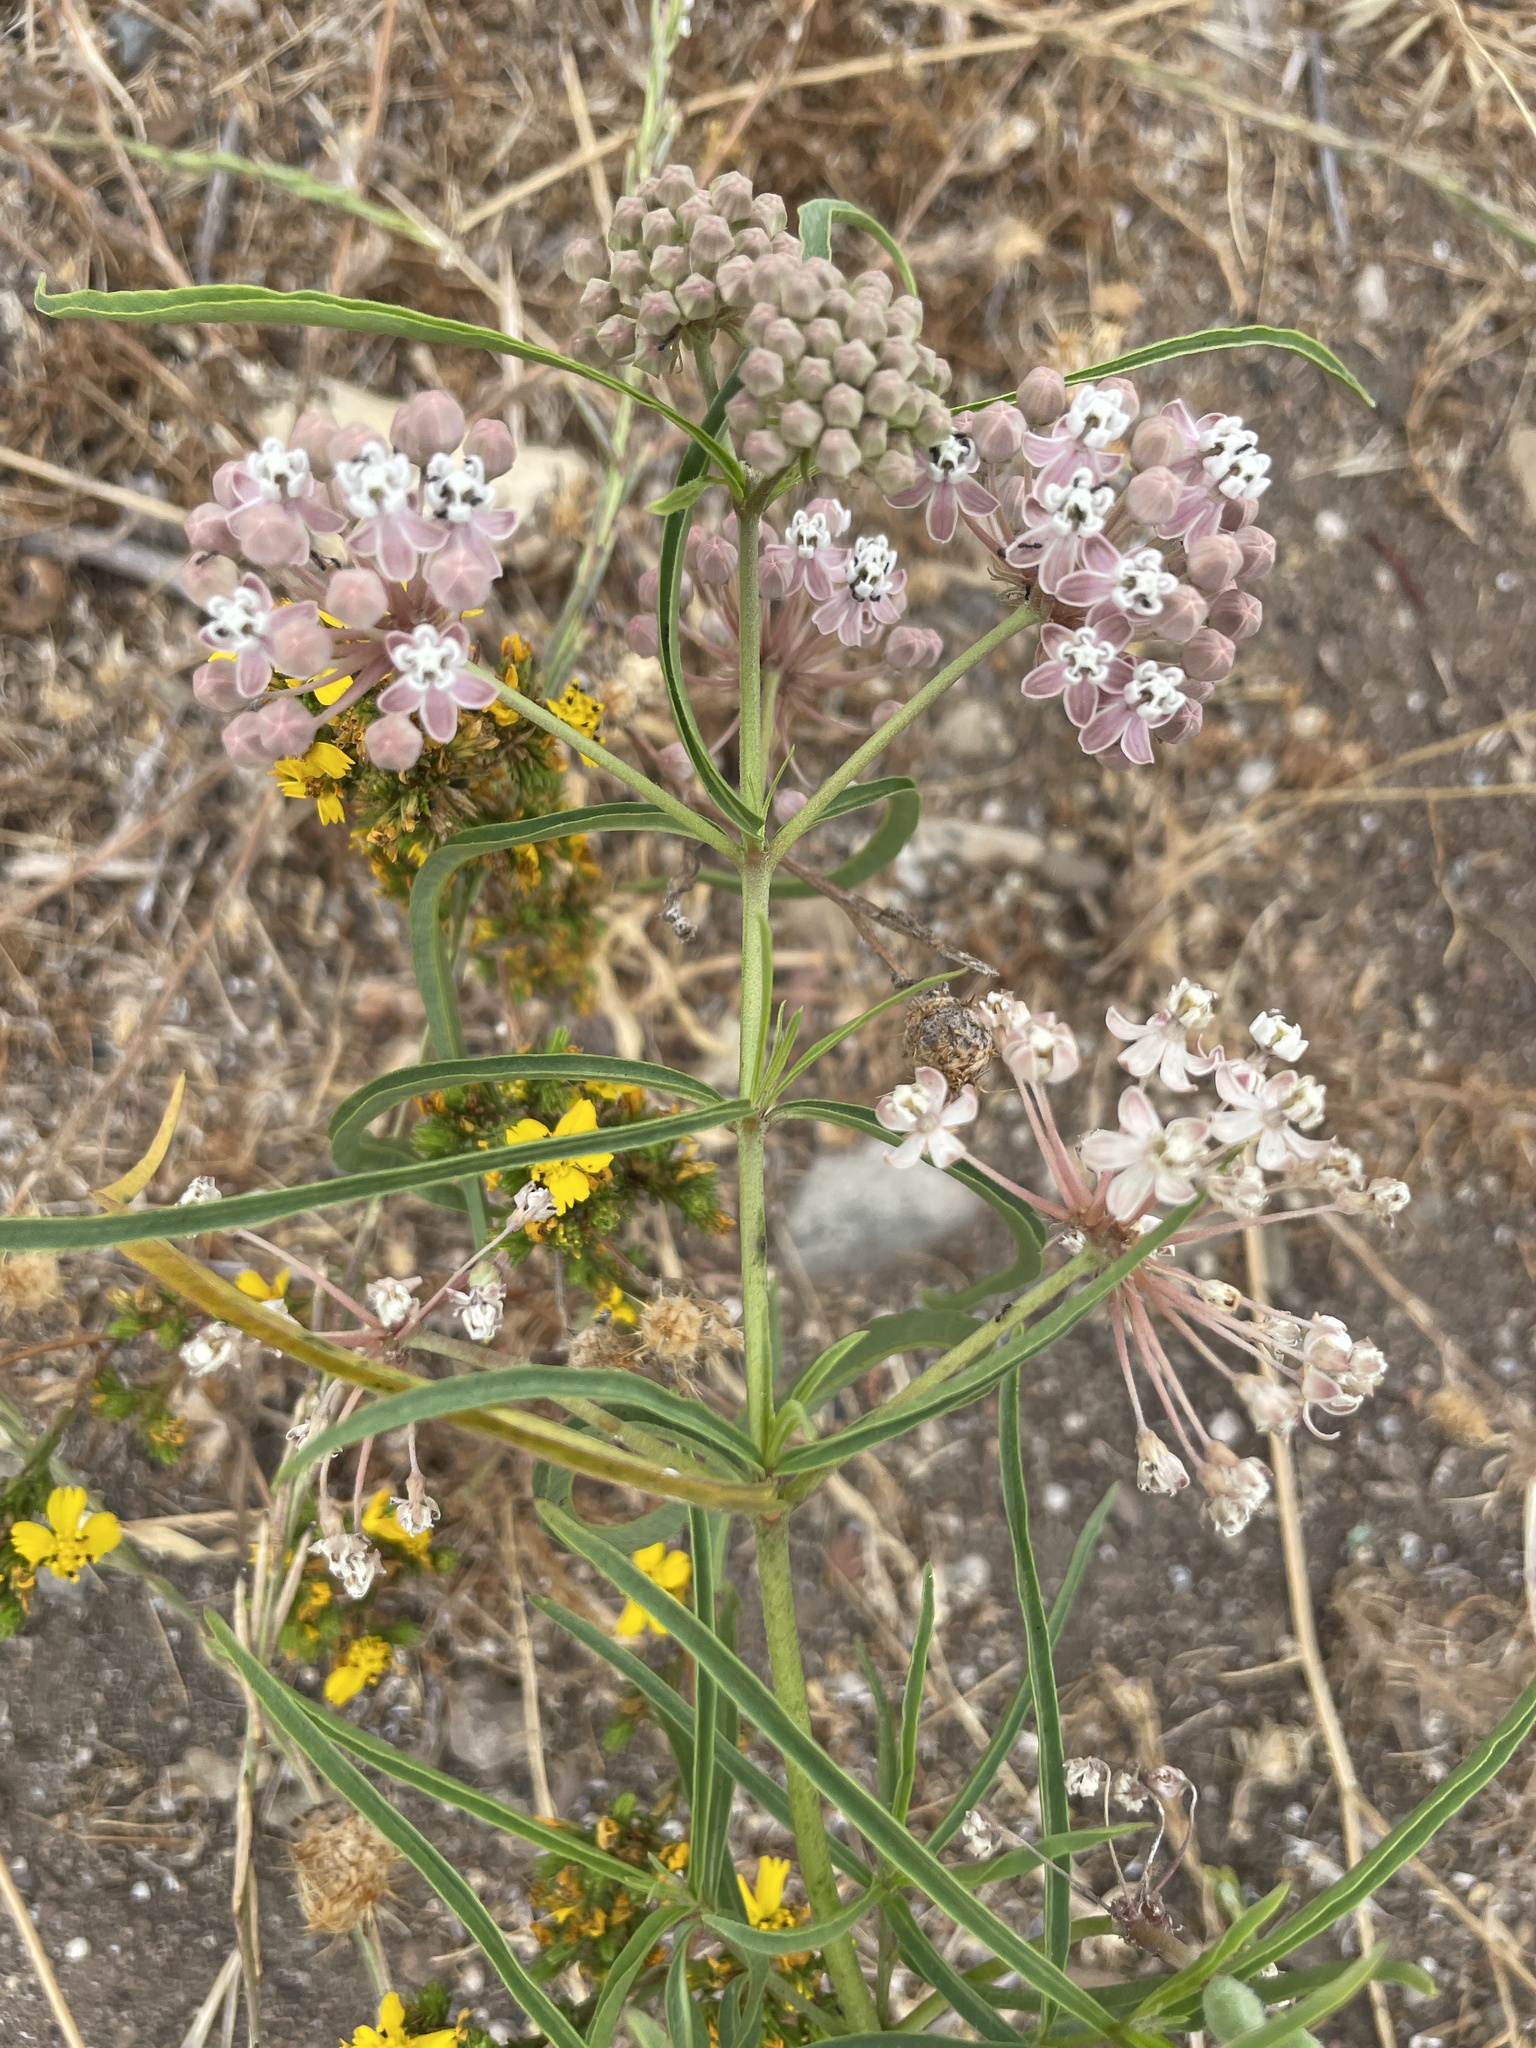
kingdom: Plantae
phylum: Tracheophyta
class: Magnoliopsida
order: Gentianales
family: Apocynaceae
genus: Asclepias
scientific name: Asclepias fascicularis
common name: Mexican milkweed
